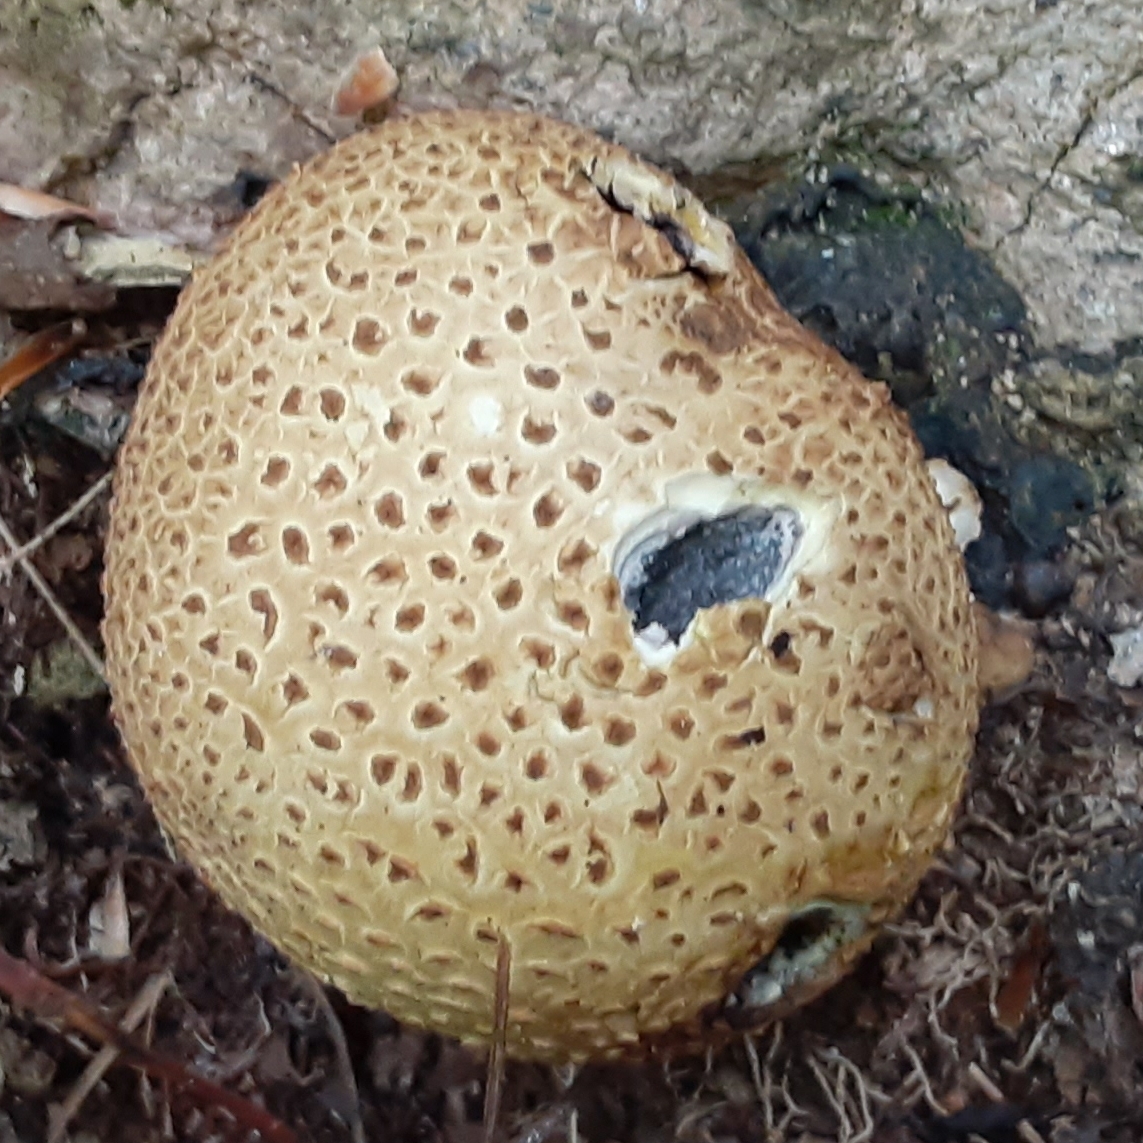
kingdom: Fungi
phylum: Basidiomycota
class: Agaricomycetes
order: Boletales
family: Sclerodermataceae
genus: Scleroderma
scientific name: Scleroderma citrinum
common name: Common earthball
